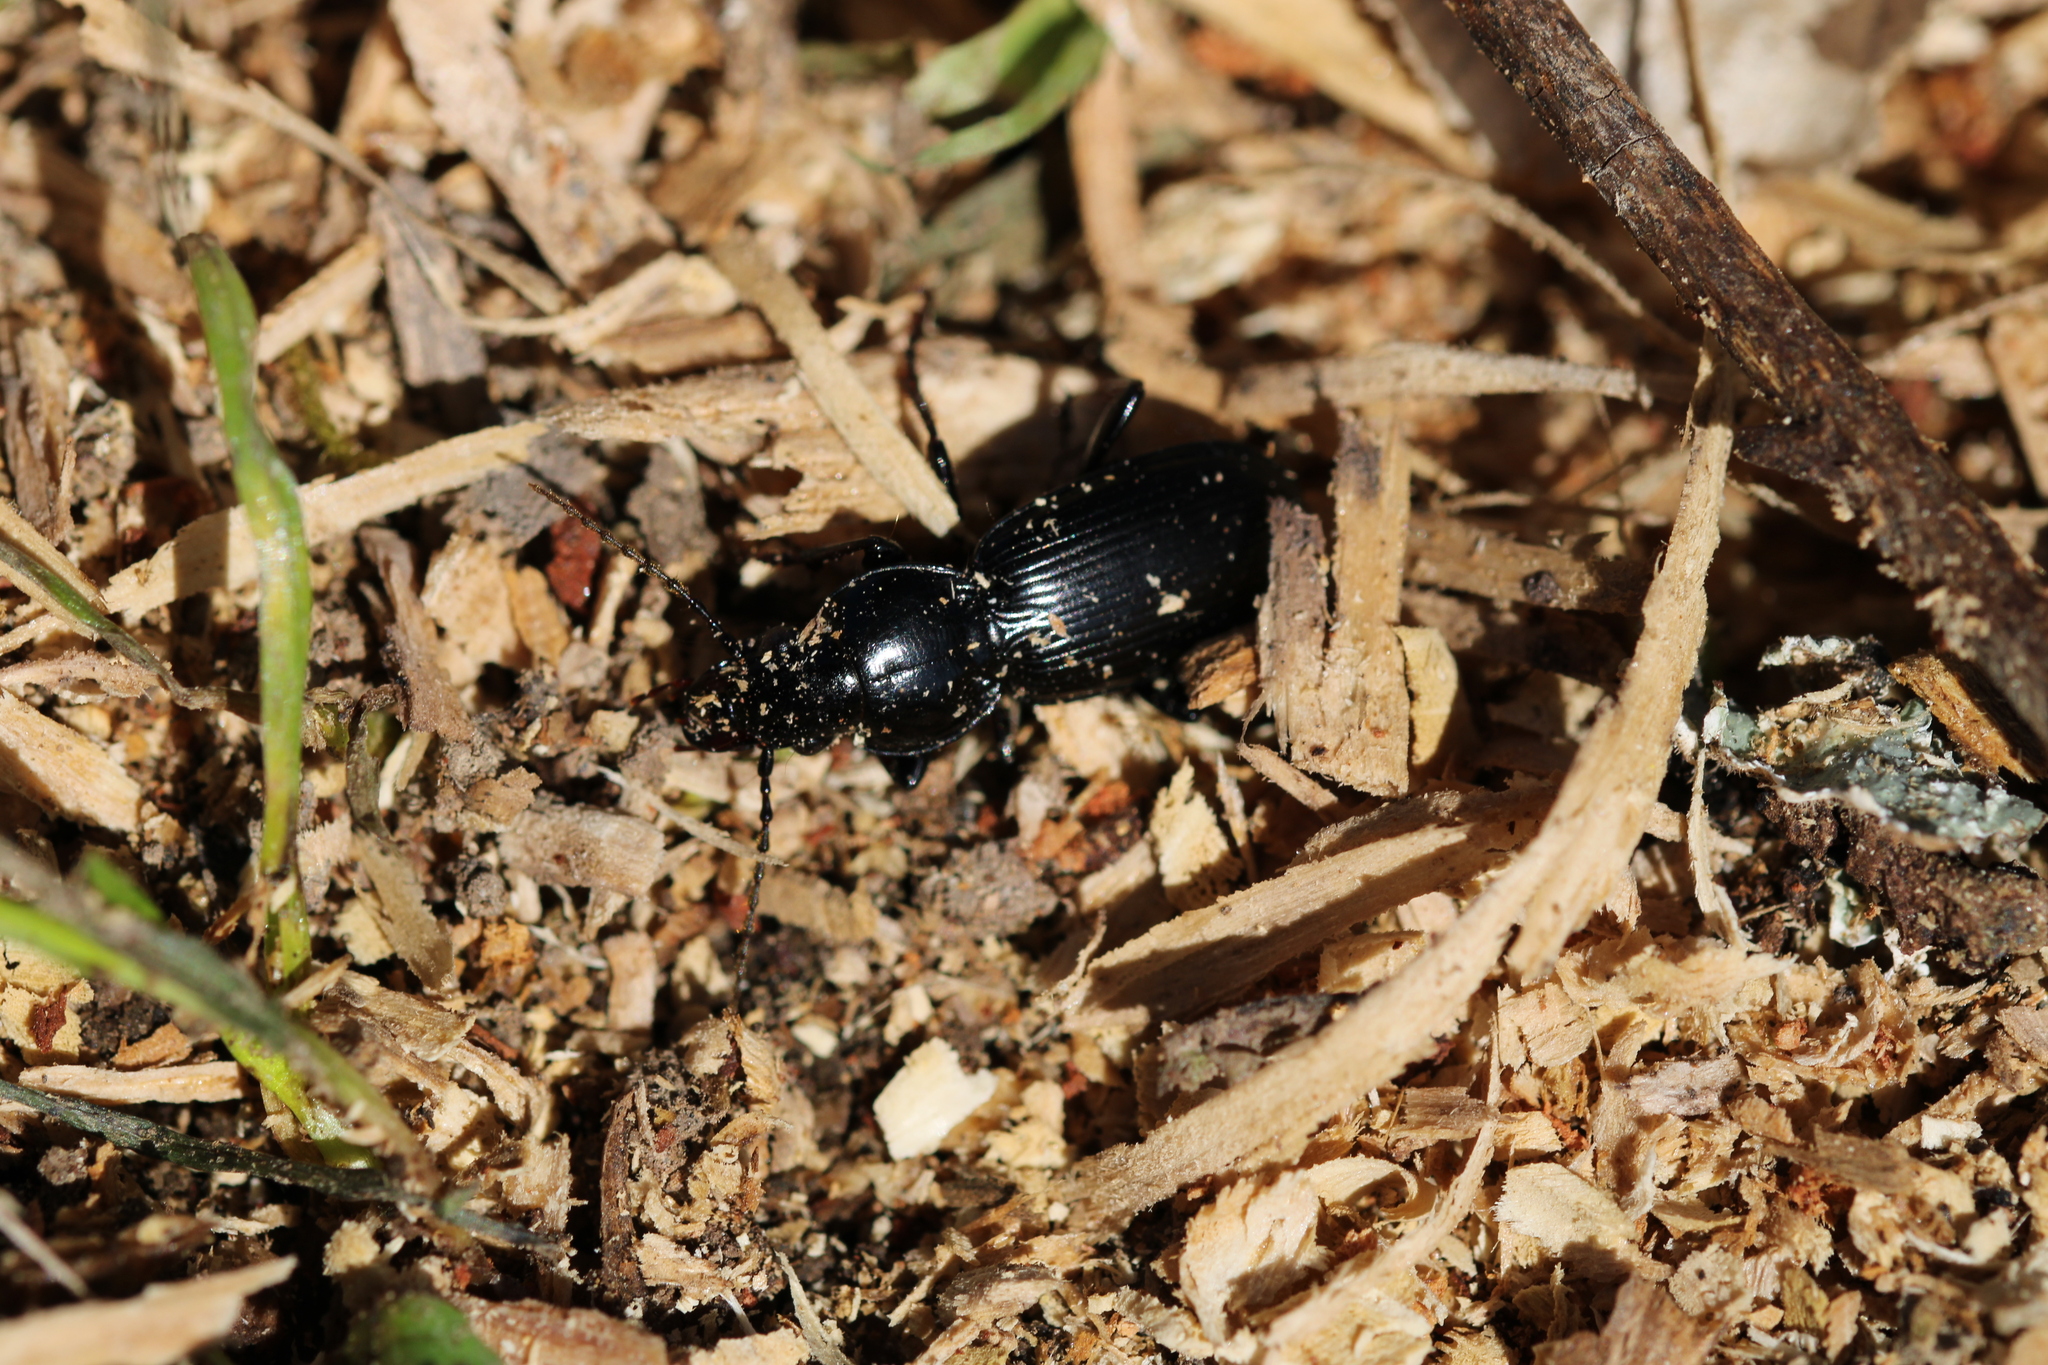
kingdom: Animalia
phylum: Arthropoda
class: Insecta
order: Coleoptera
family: Carabidae
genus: Pterostichus
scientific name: Pterostichus madidus
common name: Black clock
